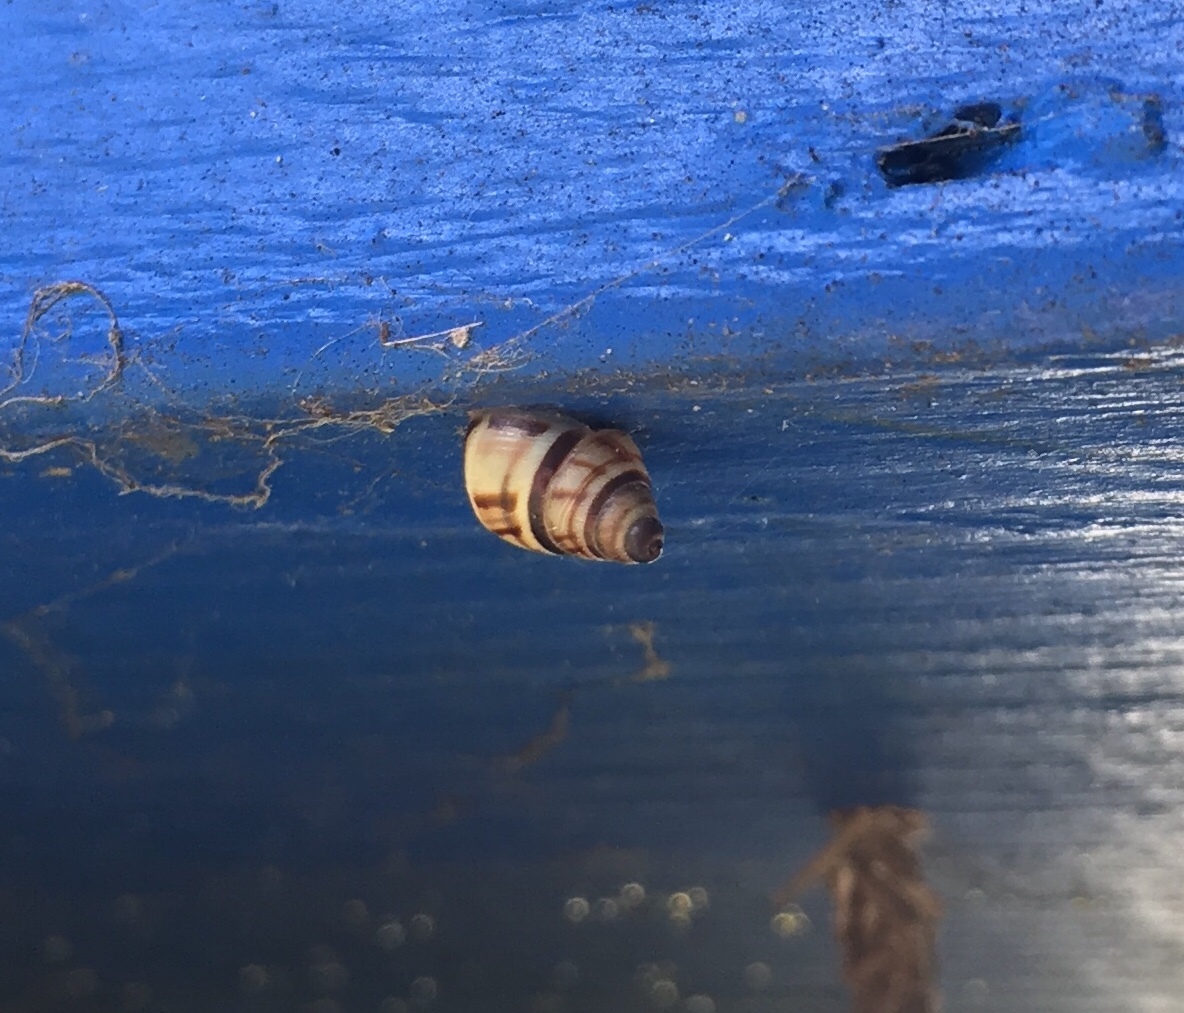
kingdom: Animalia
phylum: Mollusca
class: Gastropoda
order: Stylommatophora
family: Bulimulidae
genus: Drymaeus
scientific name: Drymaeus
